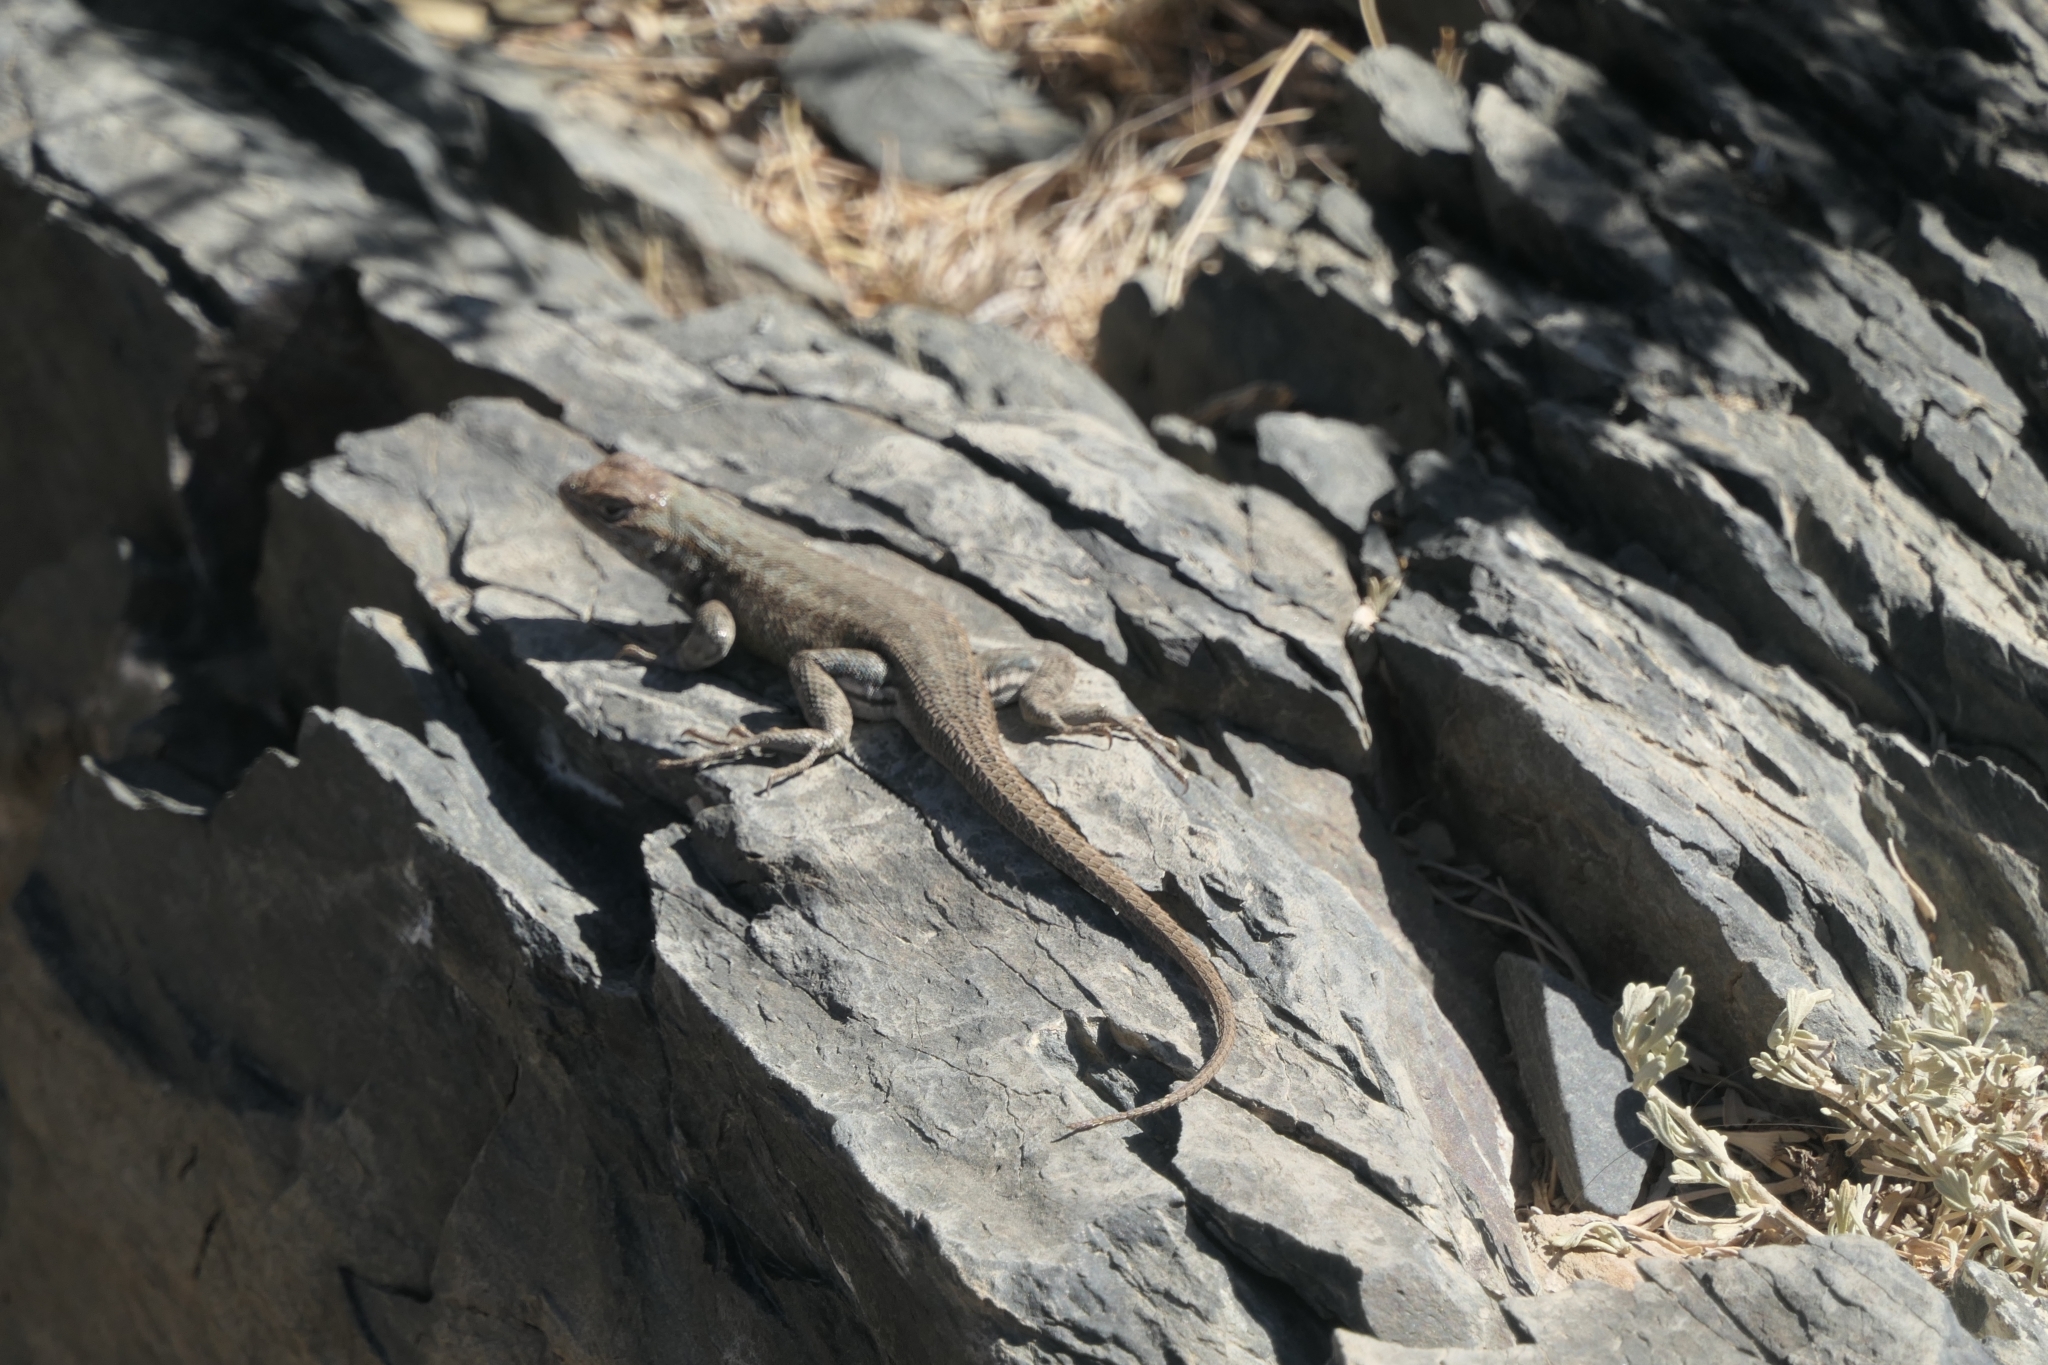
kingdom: Animalia
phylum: Chordata
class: Squamata
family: Phrynosomatidae
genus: Sceloporus
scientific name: Sceloporus graciosus
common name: Sagebrush lizard
